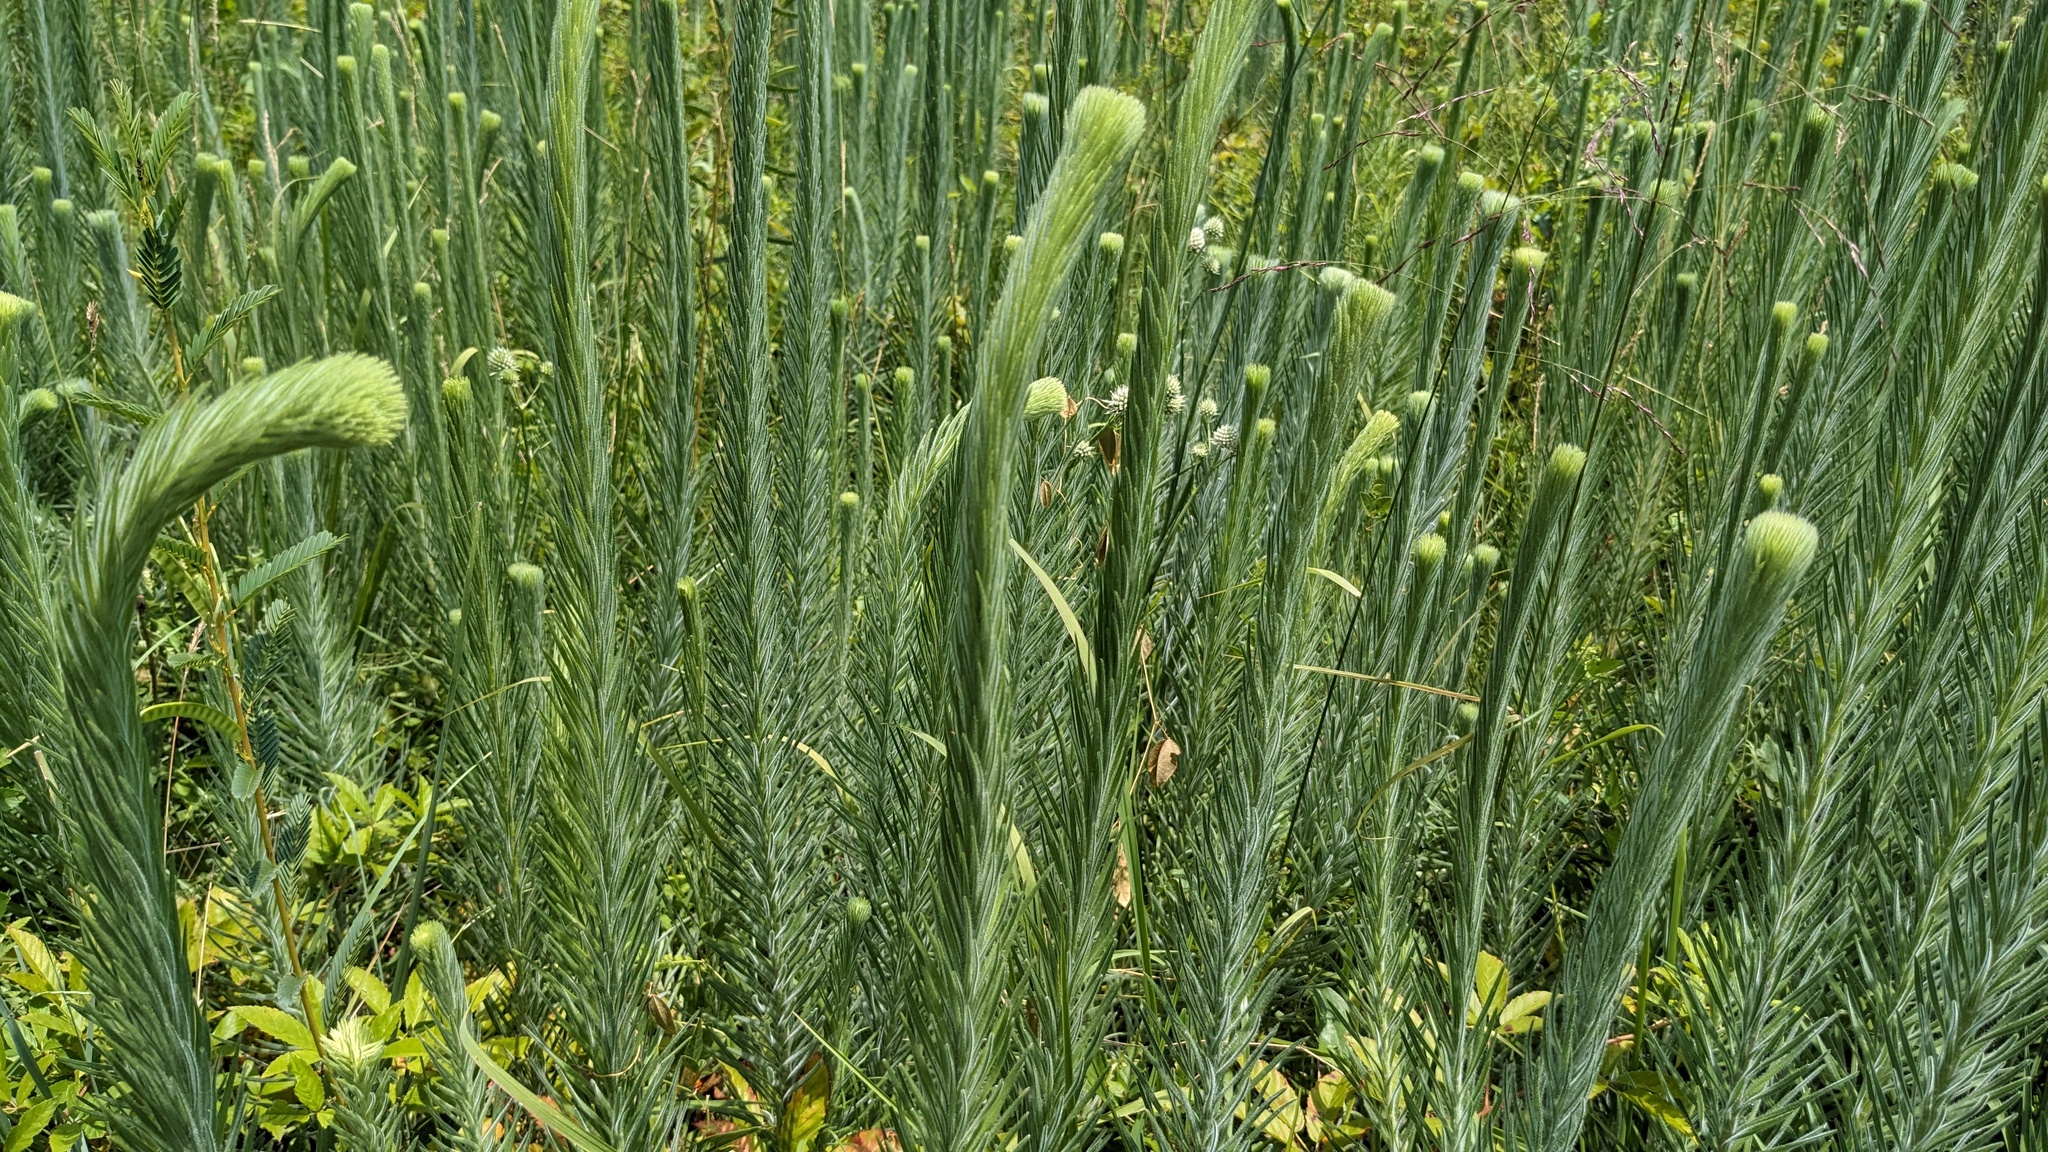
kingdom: Plantae
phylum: Tracheophyta
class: Magnoliopsida
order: Asterales
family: Asteraceae
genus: Liatris
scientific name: Liatris pycnostachya
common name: Cattail gayfeather
